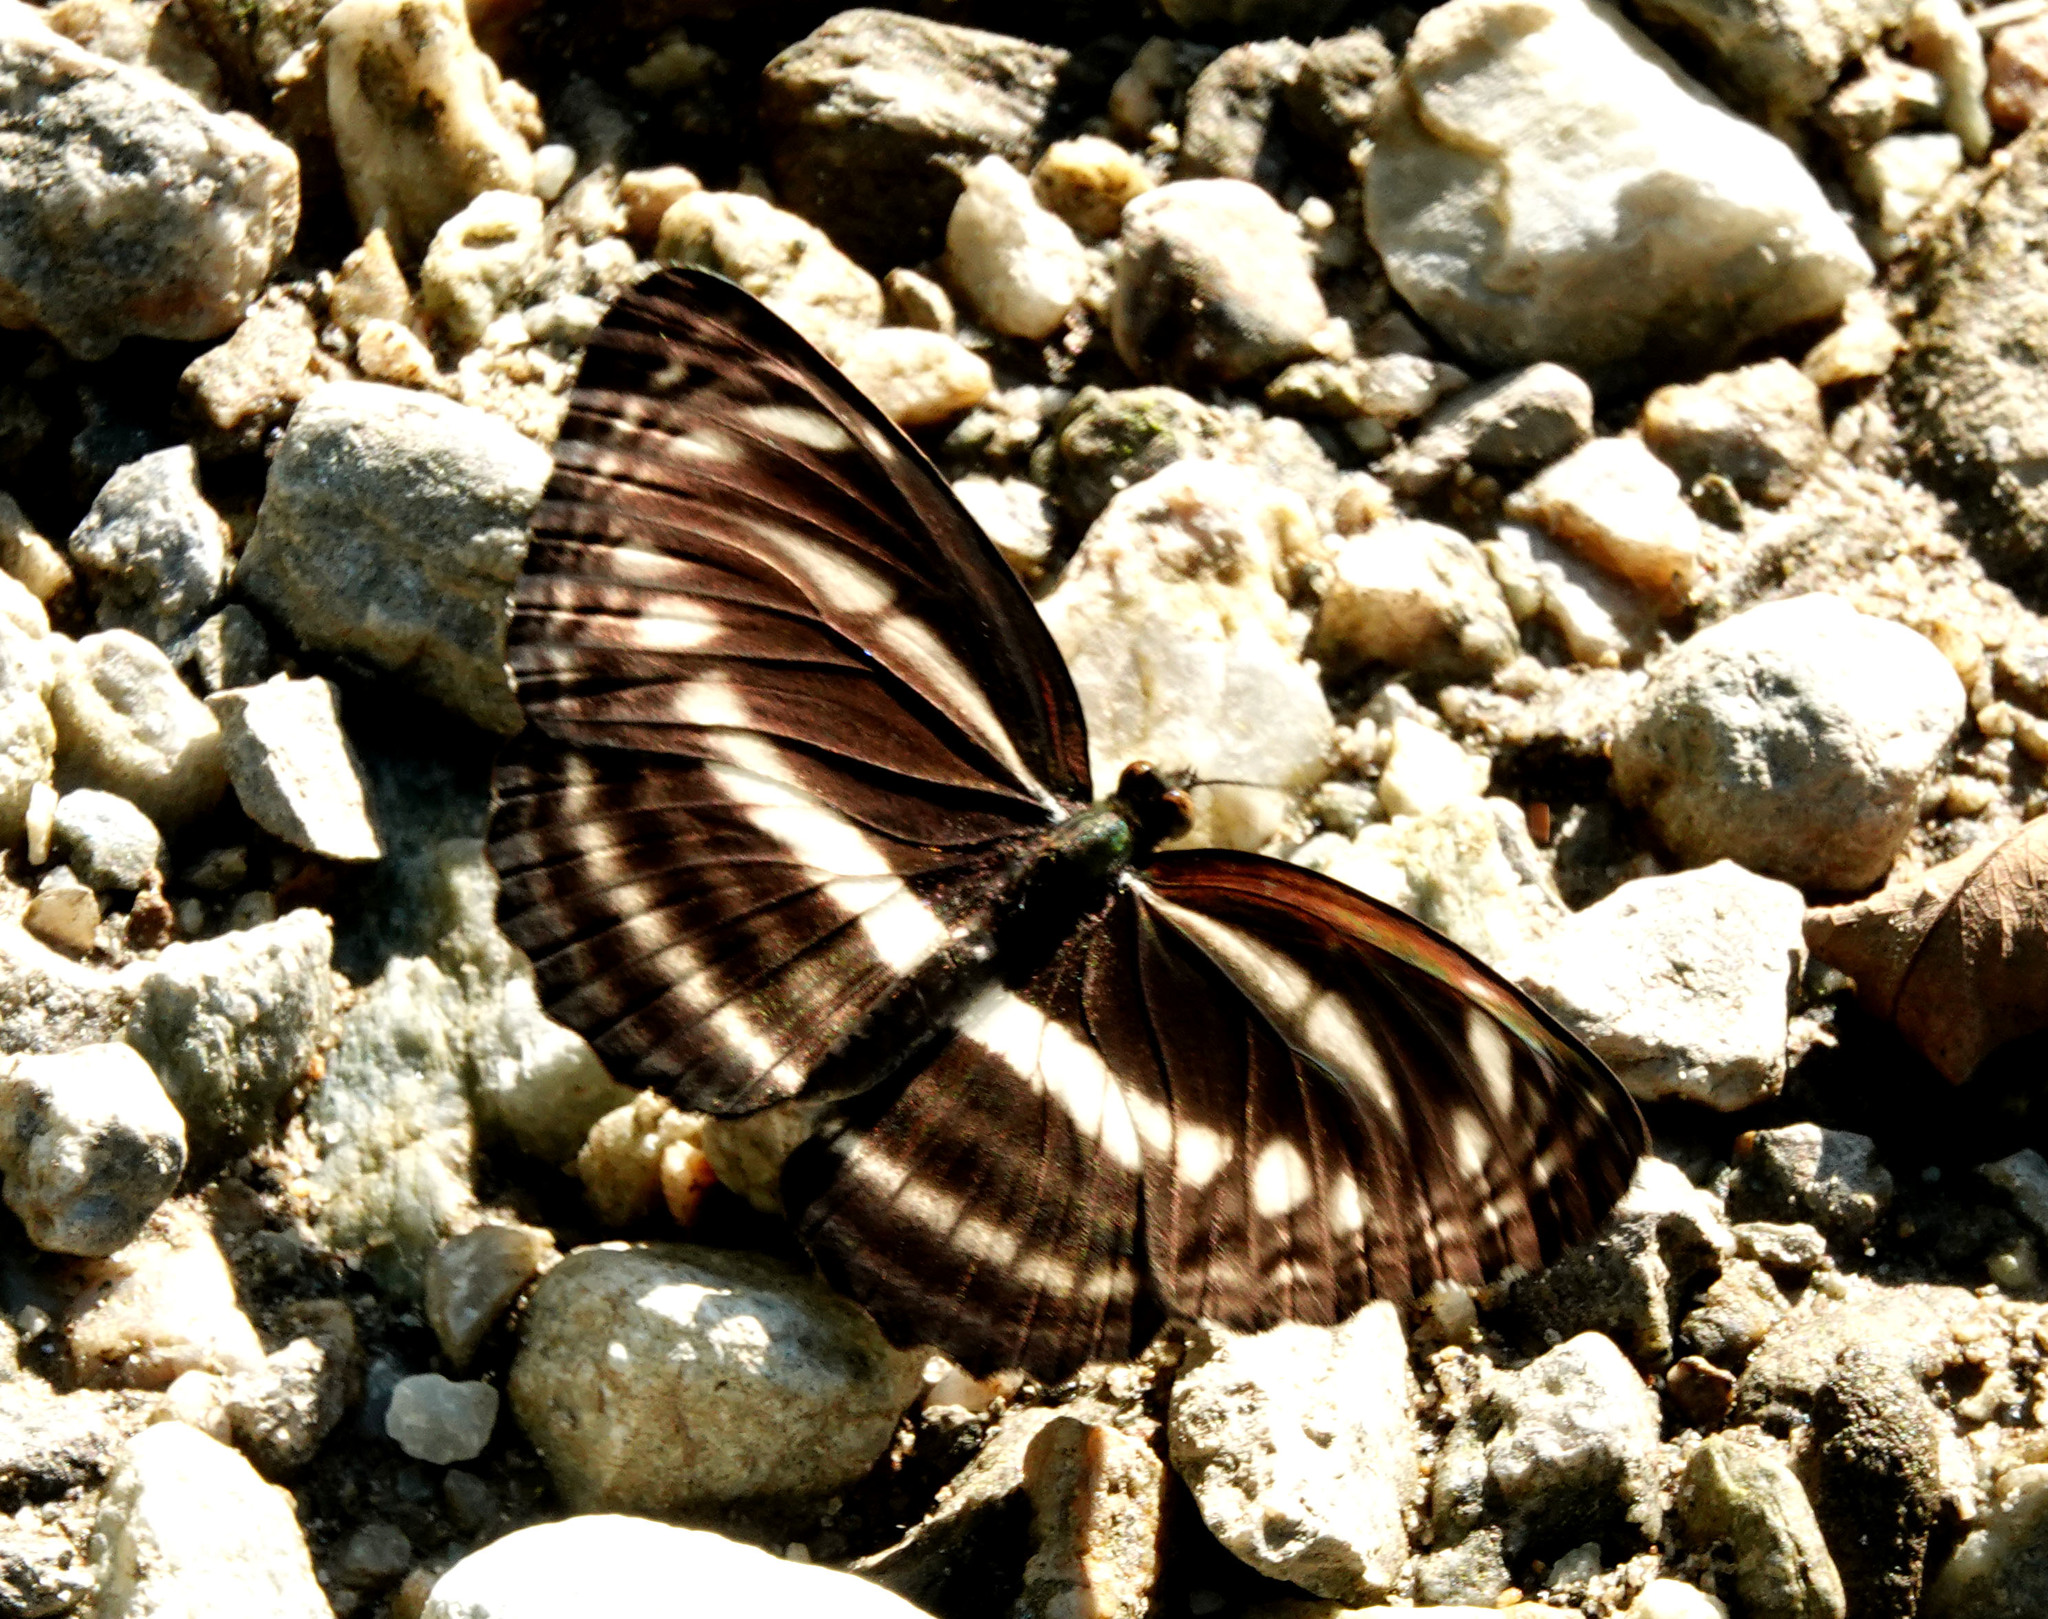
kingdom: Animalia
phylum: Arthropoda
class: Insecta
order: Lepidoptera
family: Nymphalidae
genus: Neptis
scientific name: Neptis clinia
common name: Southern sullied sailer
